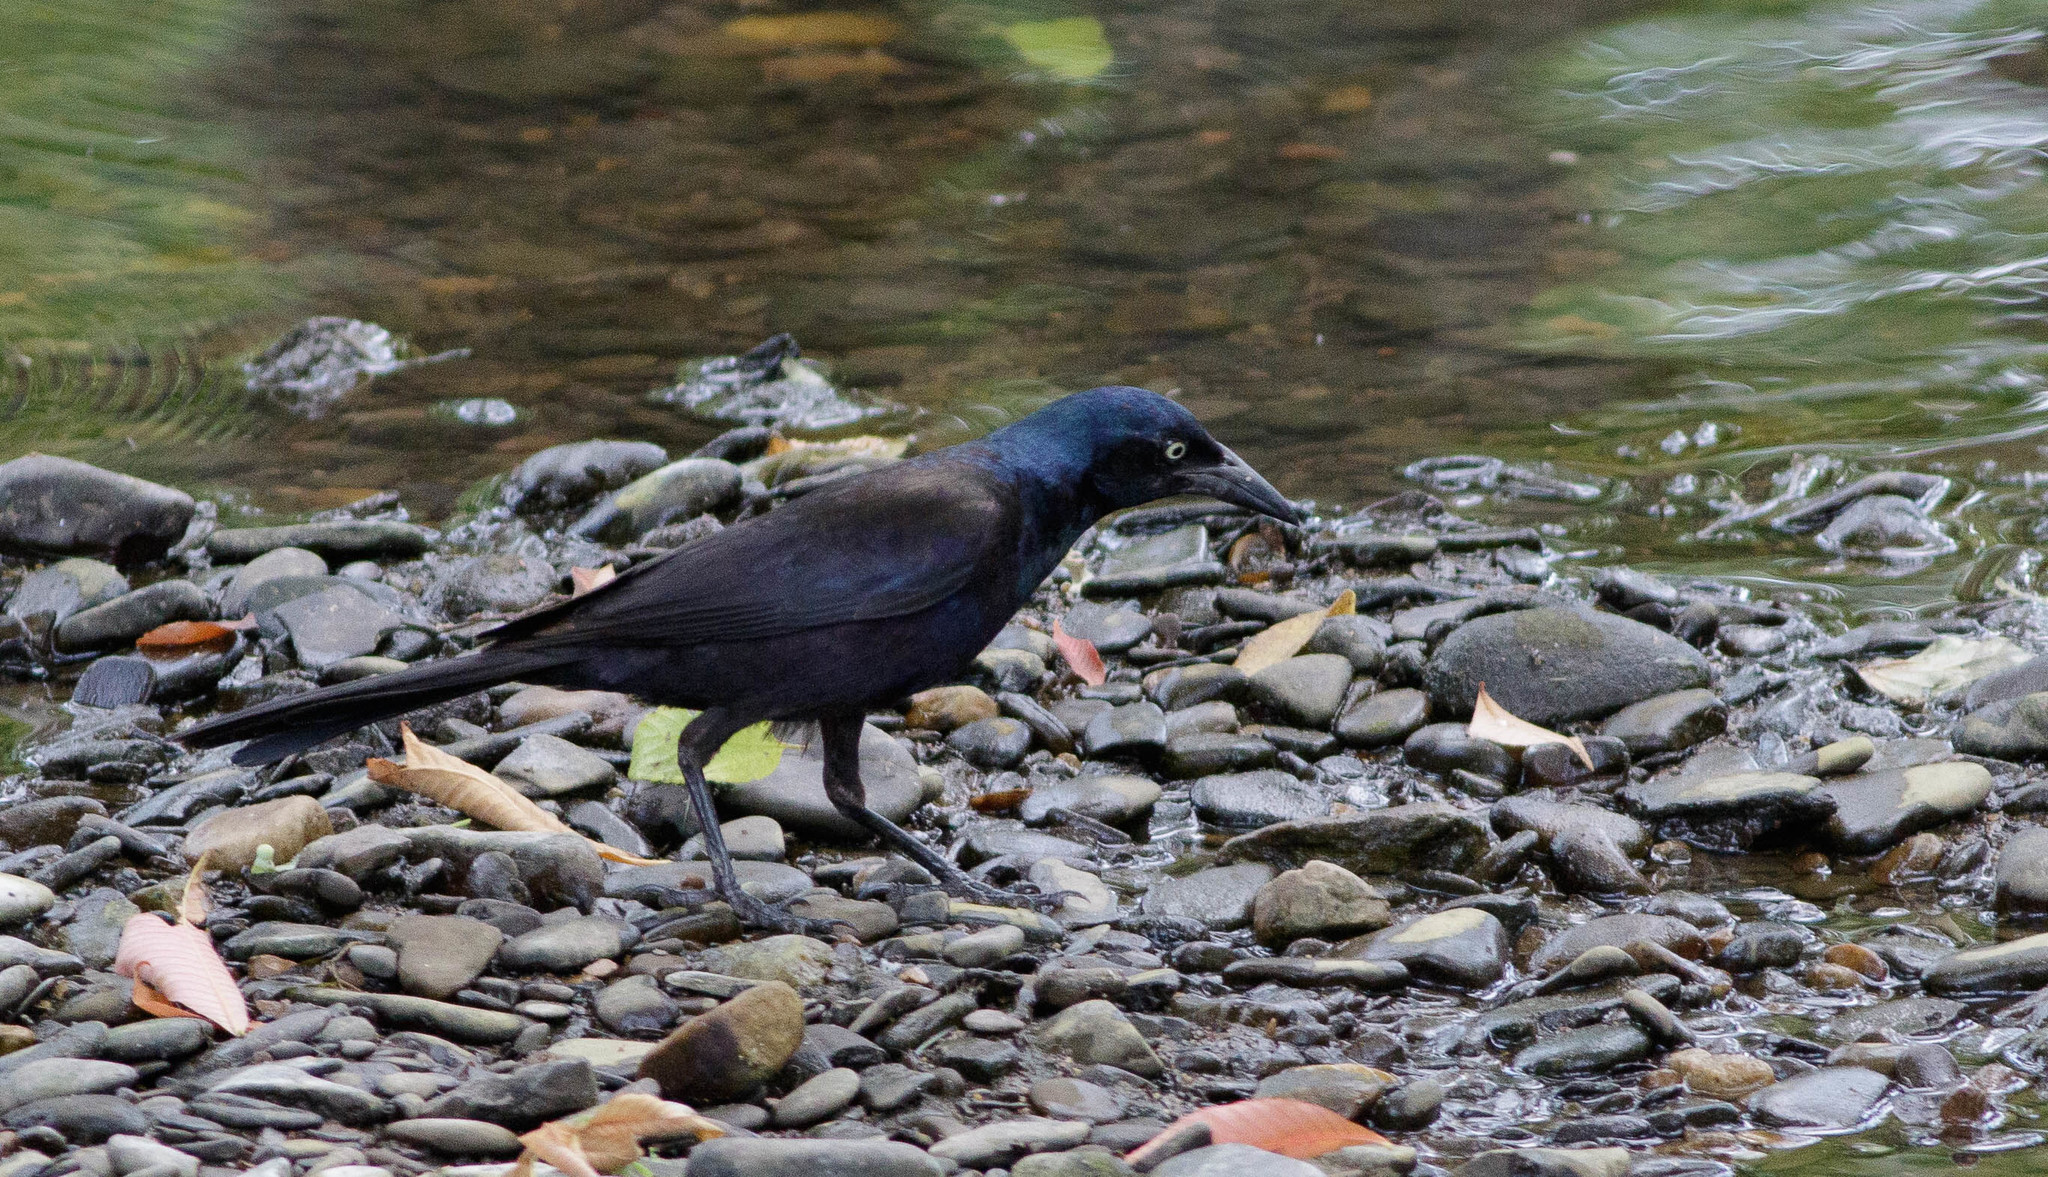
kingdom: Animalia
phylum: Chordata
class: Aves
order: Passeriformes
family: Icteridae
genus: Quiscalus
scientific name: Quiscalus quiscula
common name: Common grackle
